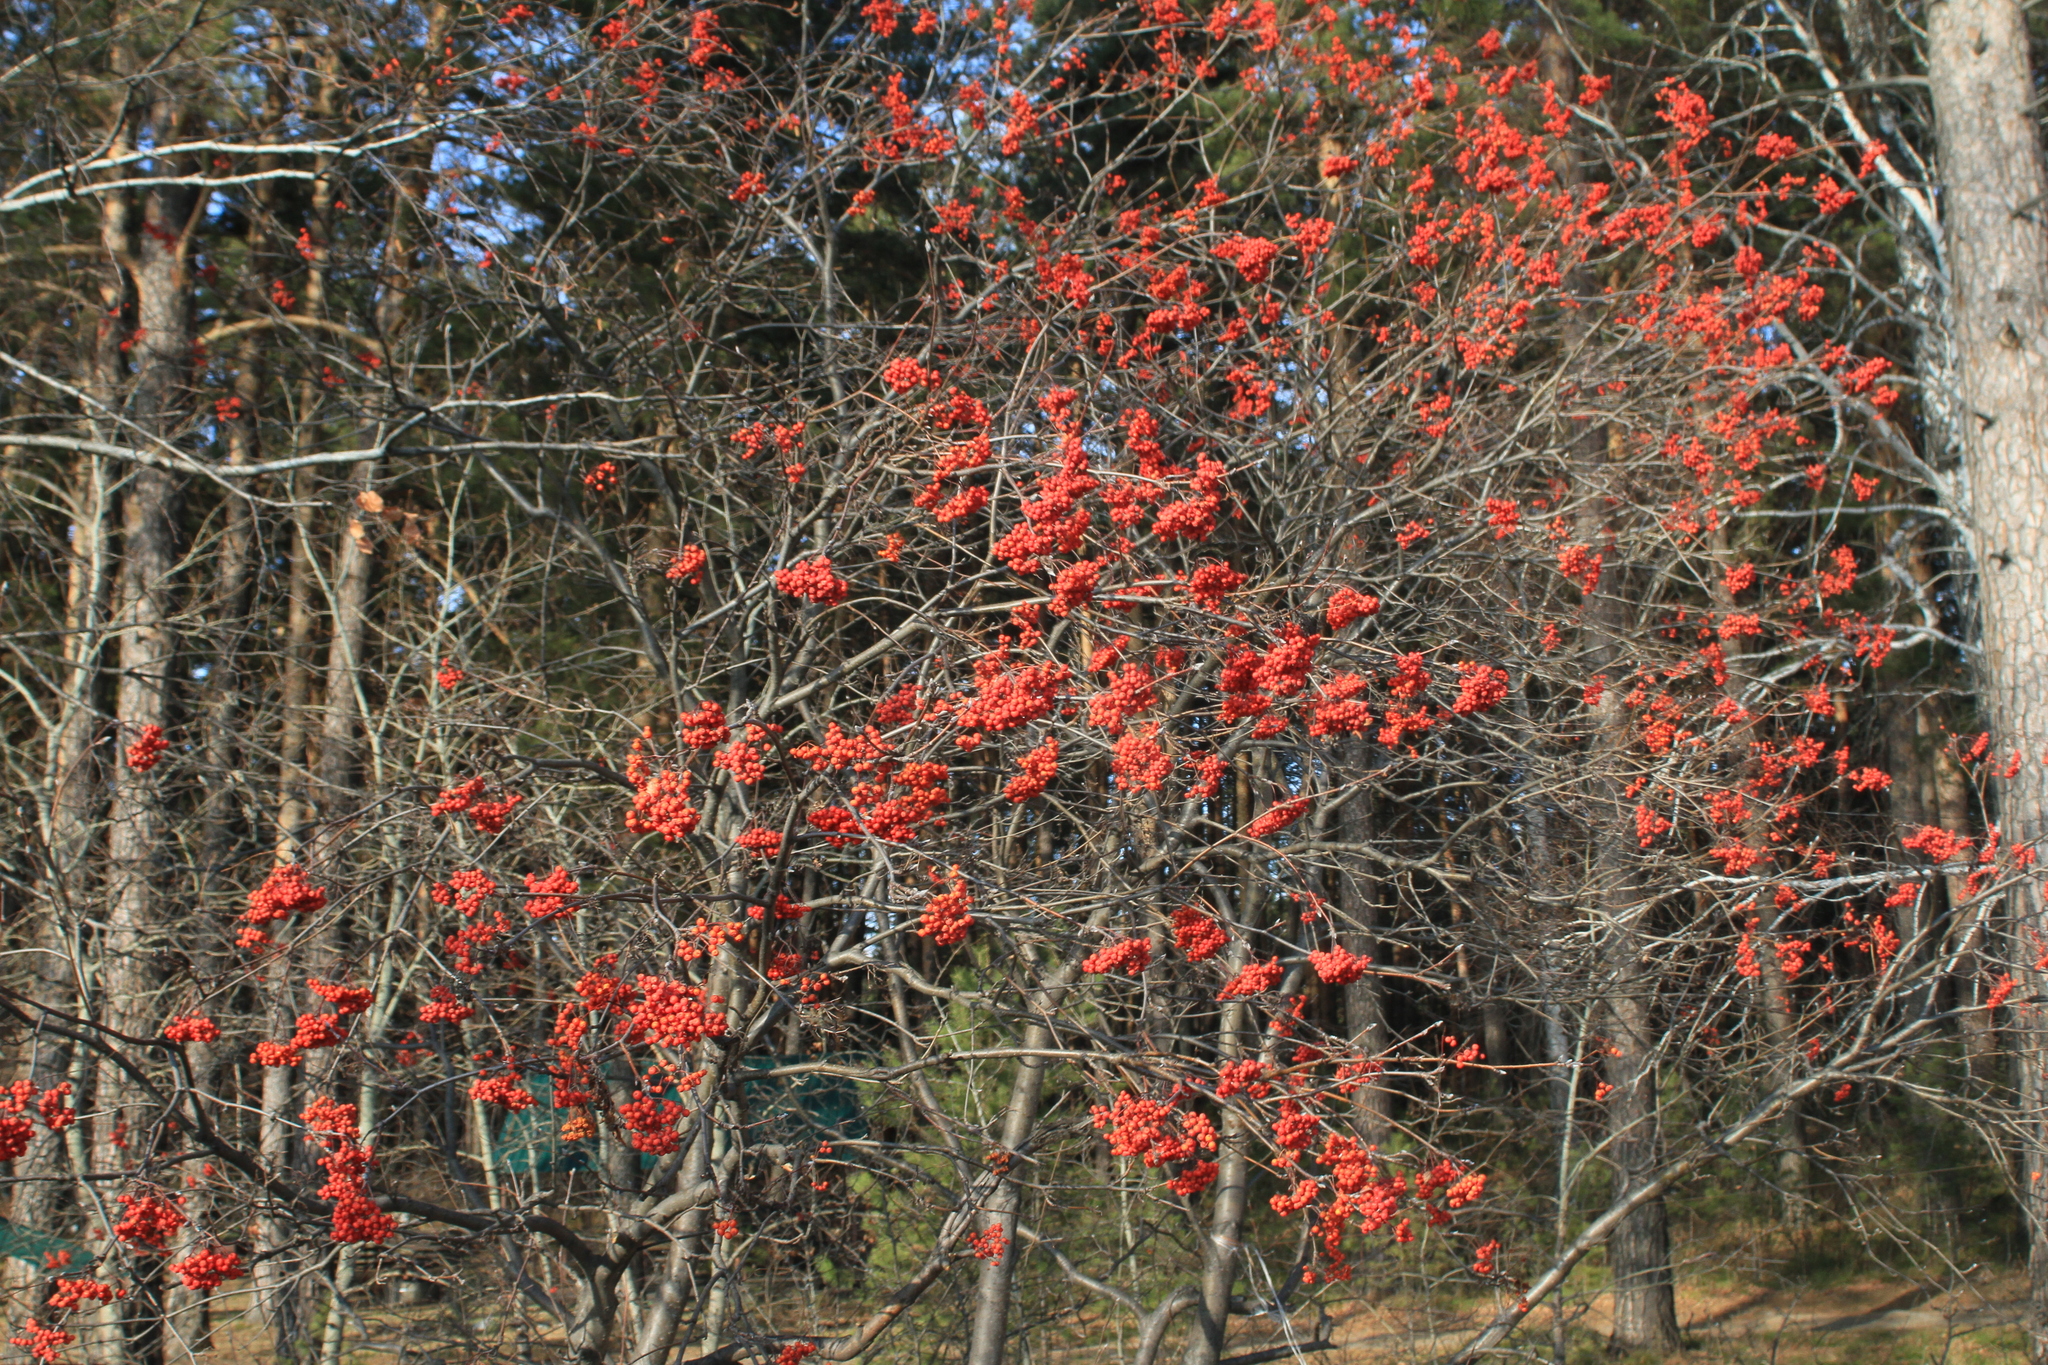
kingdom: Plantae
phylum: Tracheophyta
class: Magnoliopsida
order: Rosales
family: Rosaceae
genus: Sorbus
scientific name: Sorbus aucuparia
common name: Rowan
